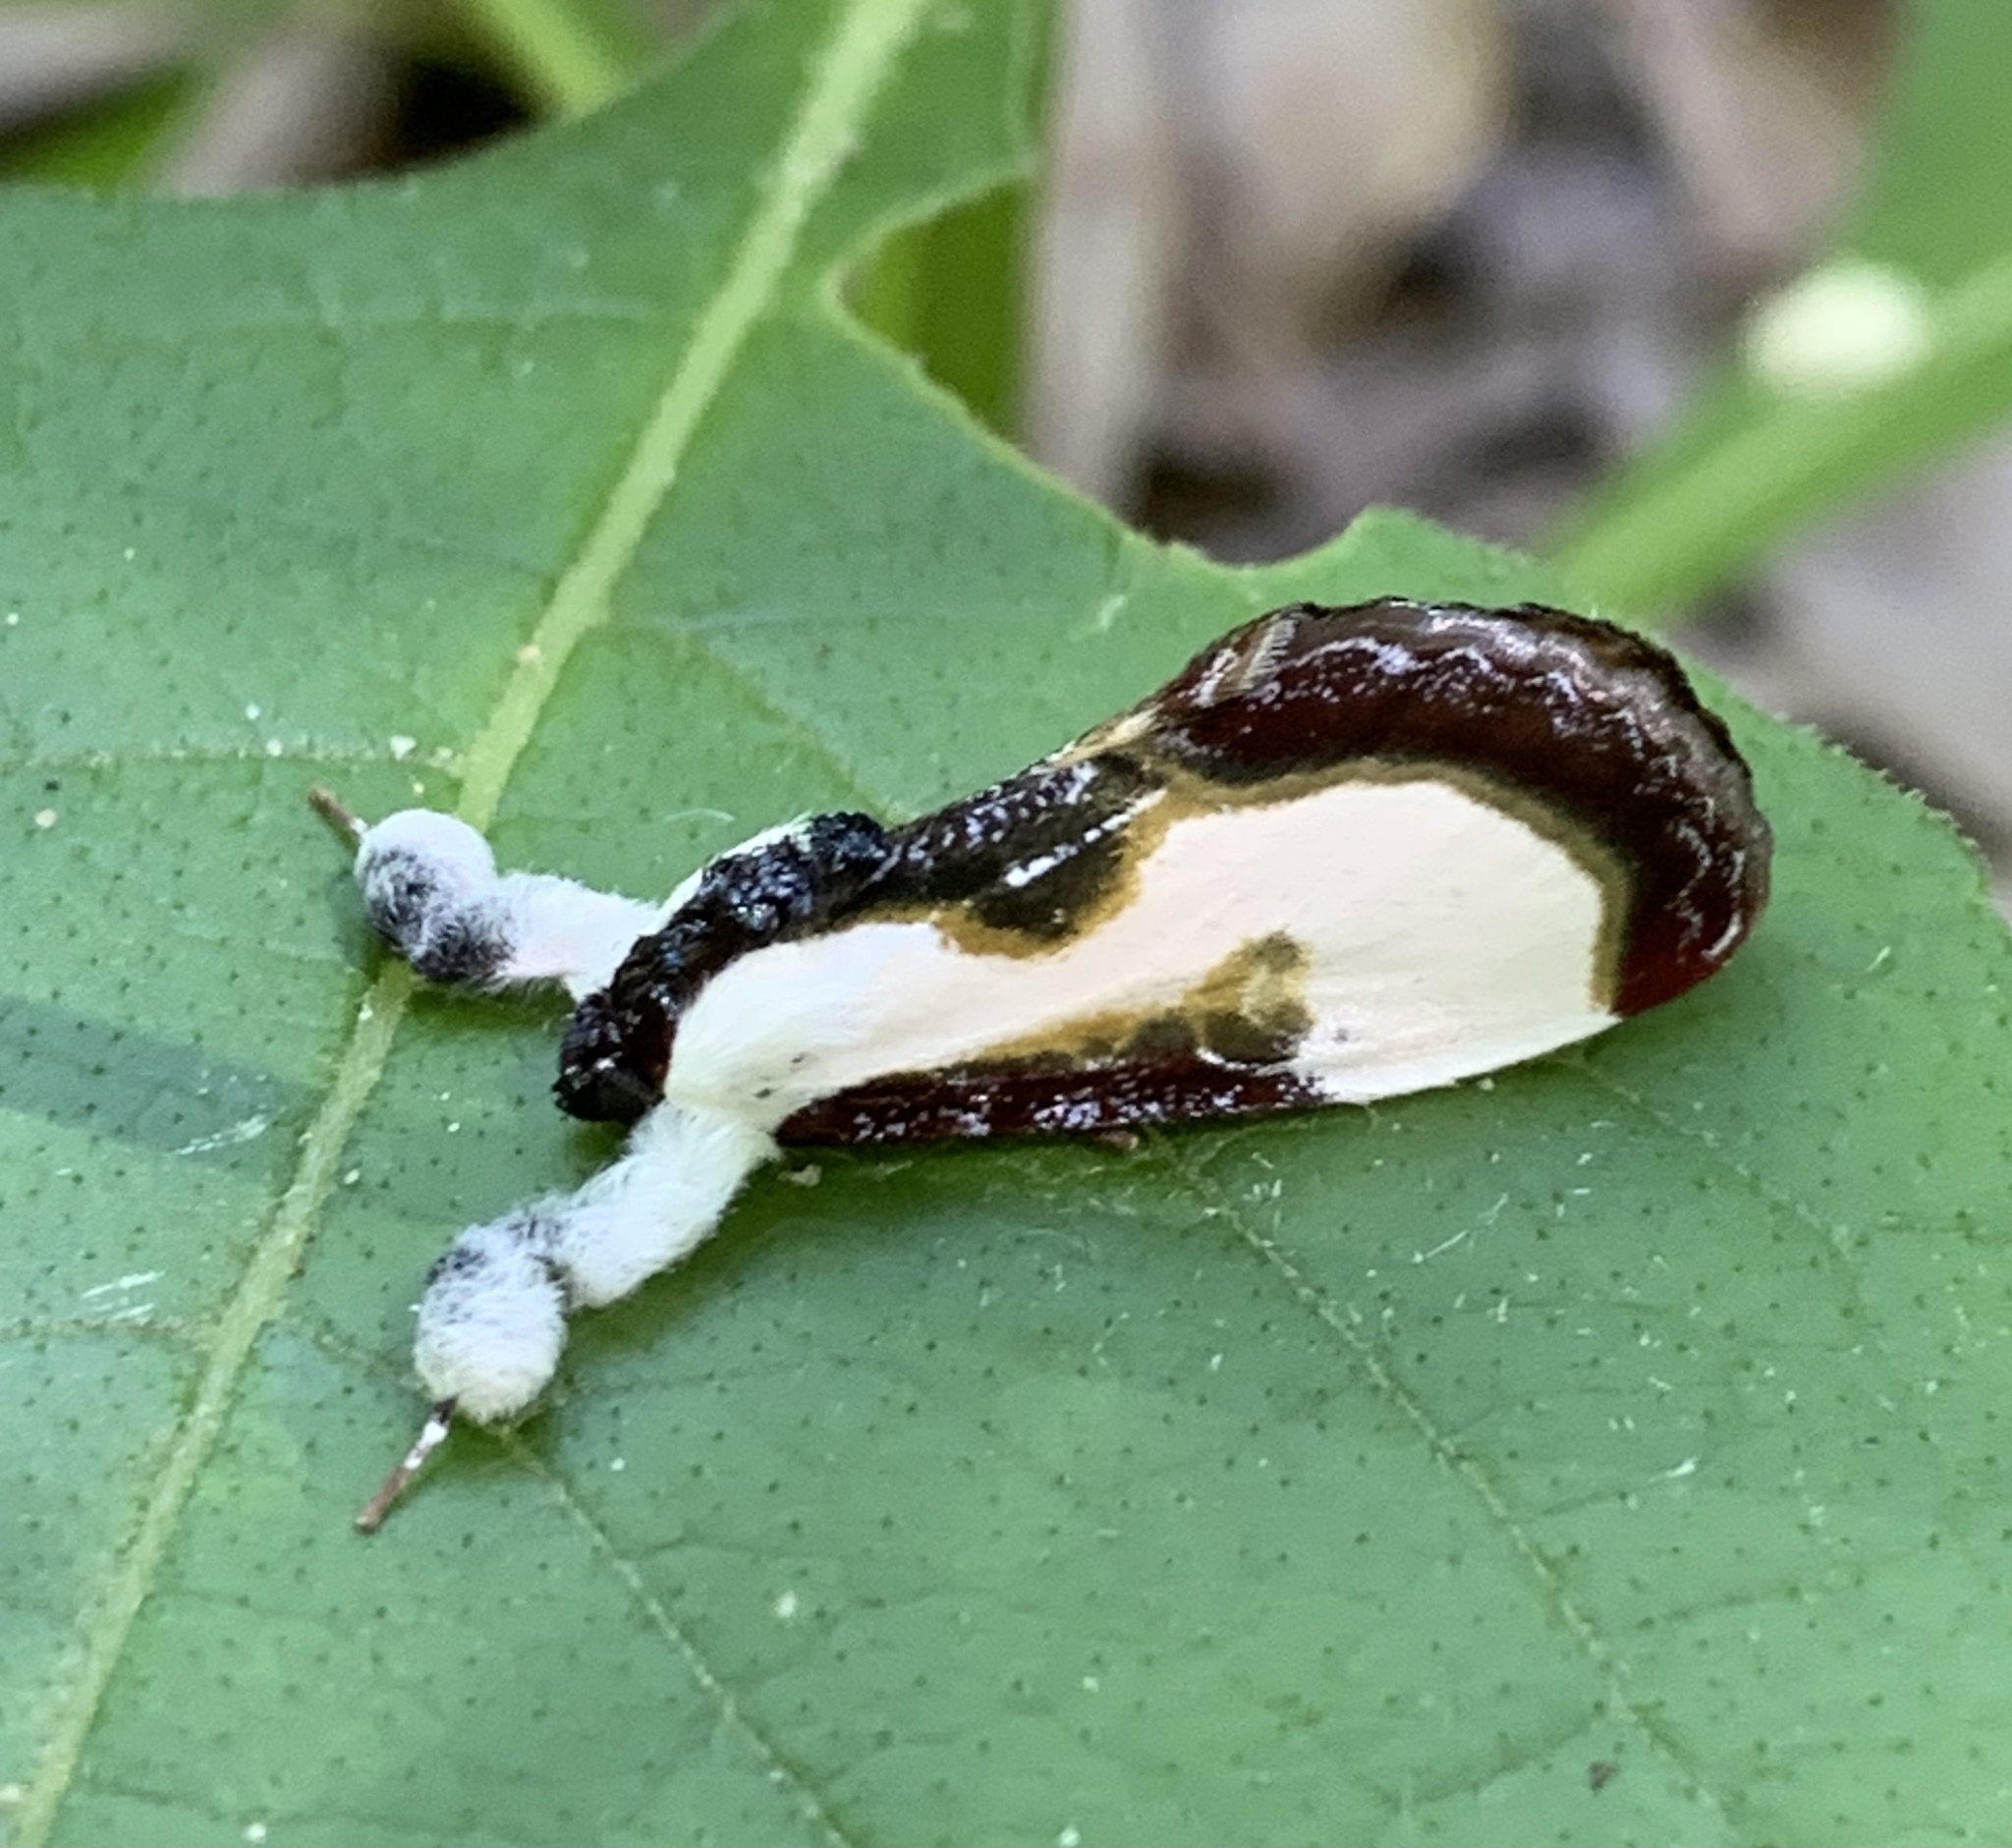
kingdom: Animalia
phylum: Arthropoda
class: Insecta
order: Lepidoptera
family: Noctuidae
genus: Eudryas
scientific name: Eudryas grata
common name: Beautiful wood-nymph
